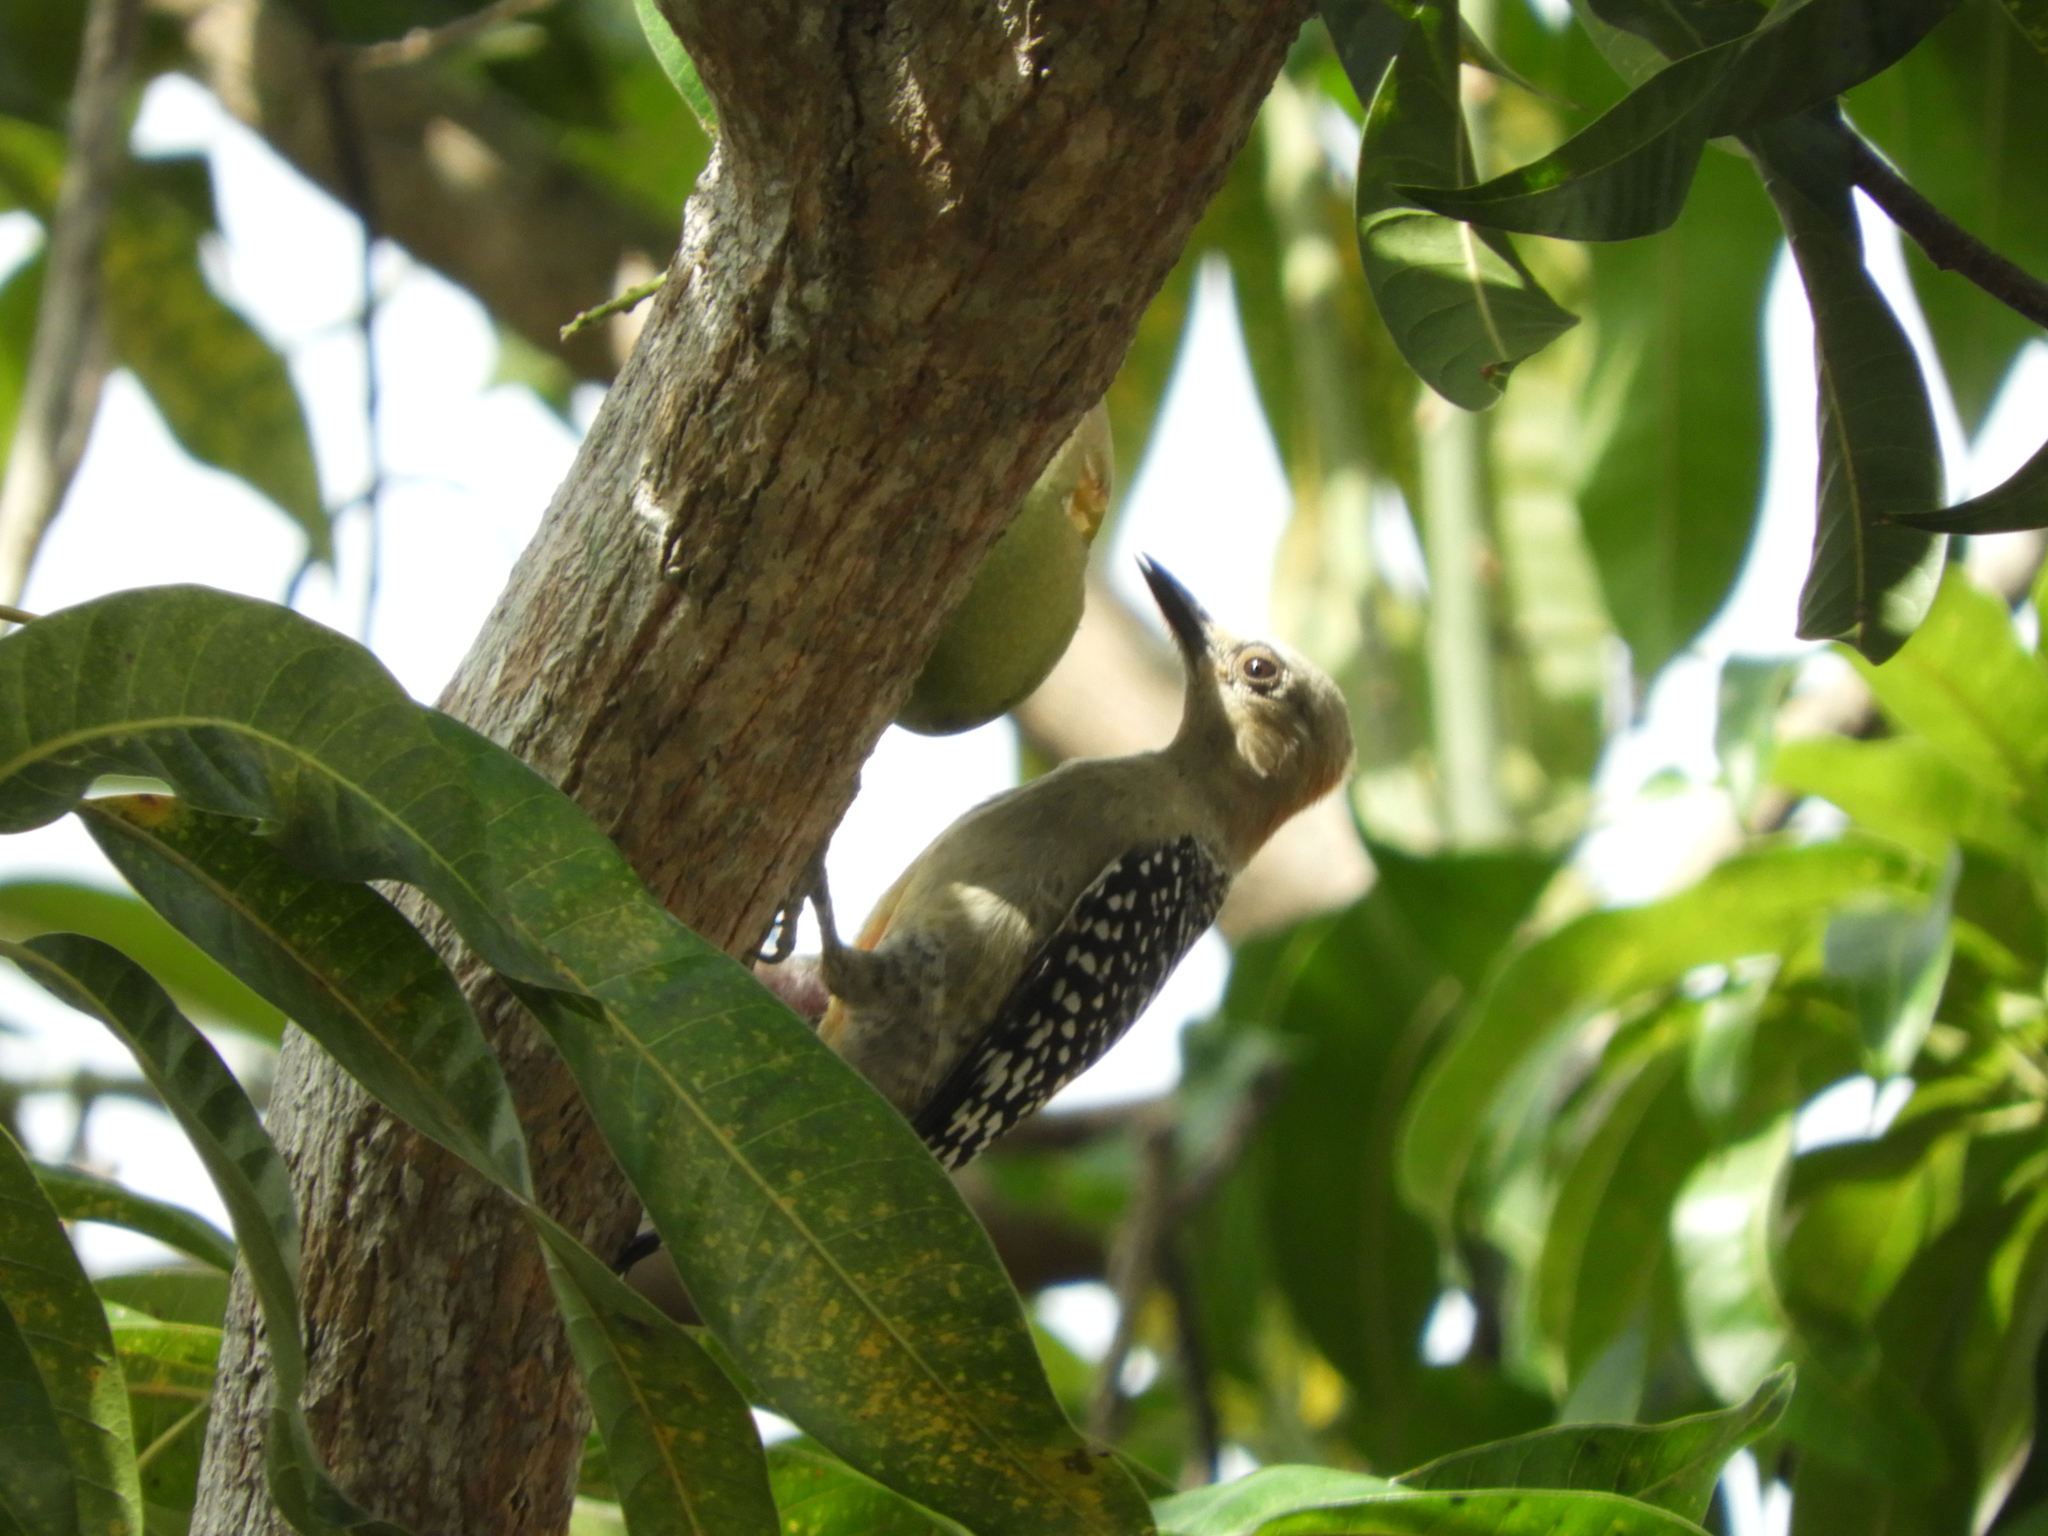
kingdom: Animalia
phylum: Chordata
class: Aves
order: Piciformes
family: Picidae
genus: Melanerpes
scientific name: Melanerpes rubricapillus
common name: Red-crowned woodpecker
